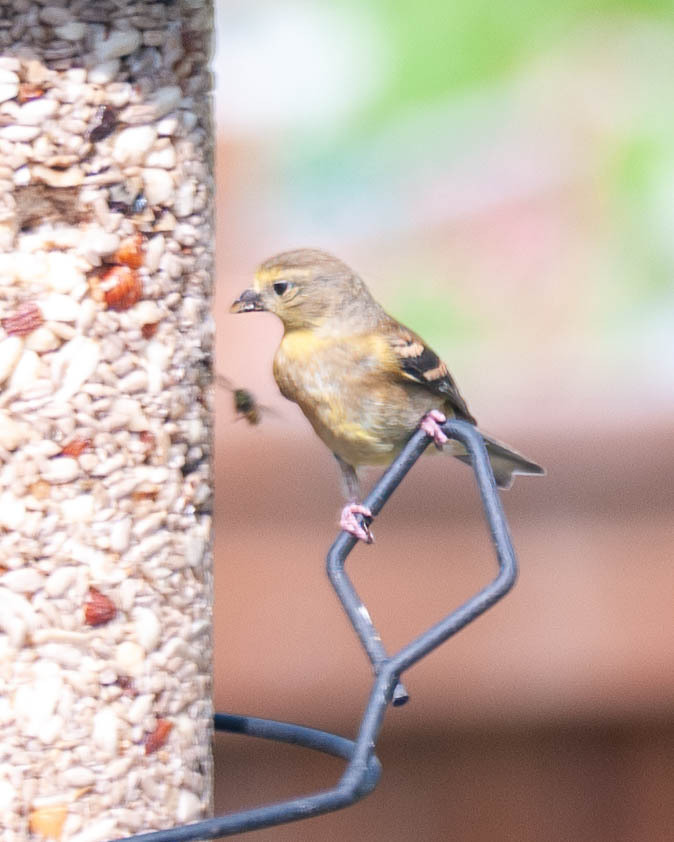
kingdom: Animalia
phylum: Chordata
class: Aves
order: Passeriformes
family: Fringillidae
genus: Spinus
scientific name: Spinus tristis
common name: American goldfinch
